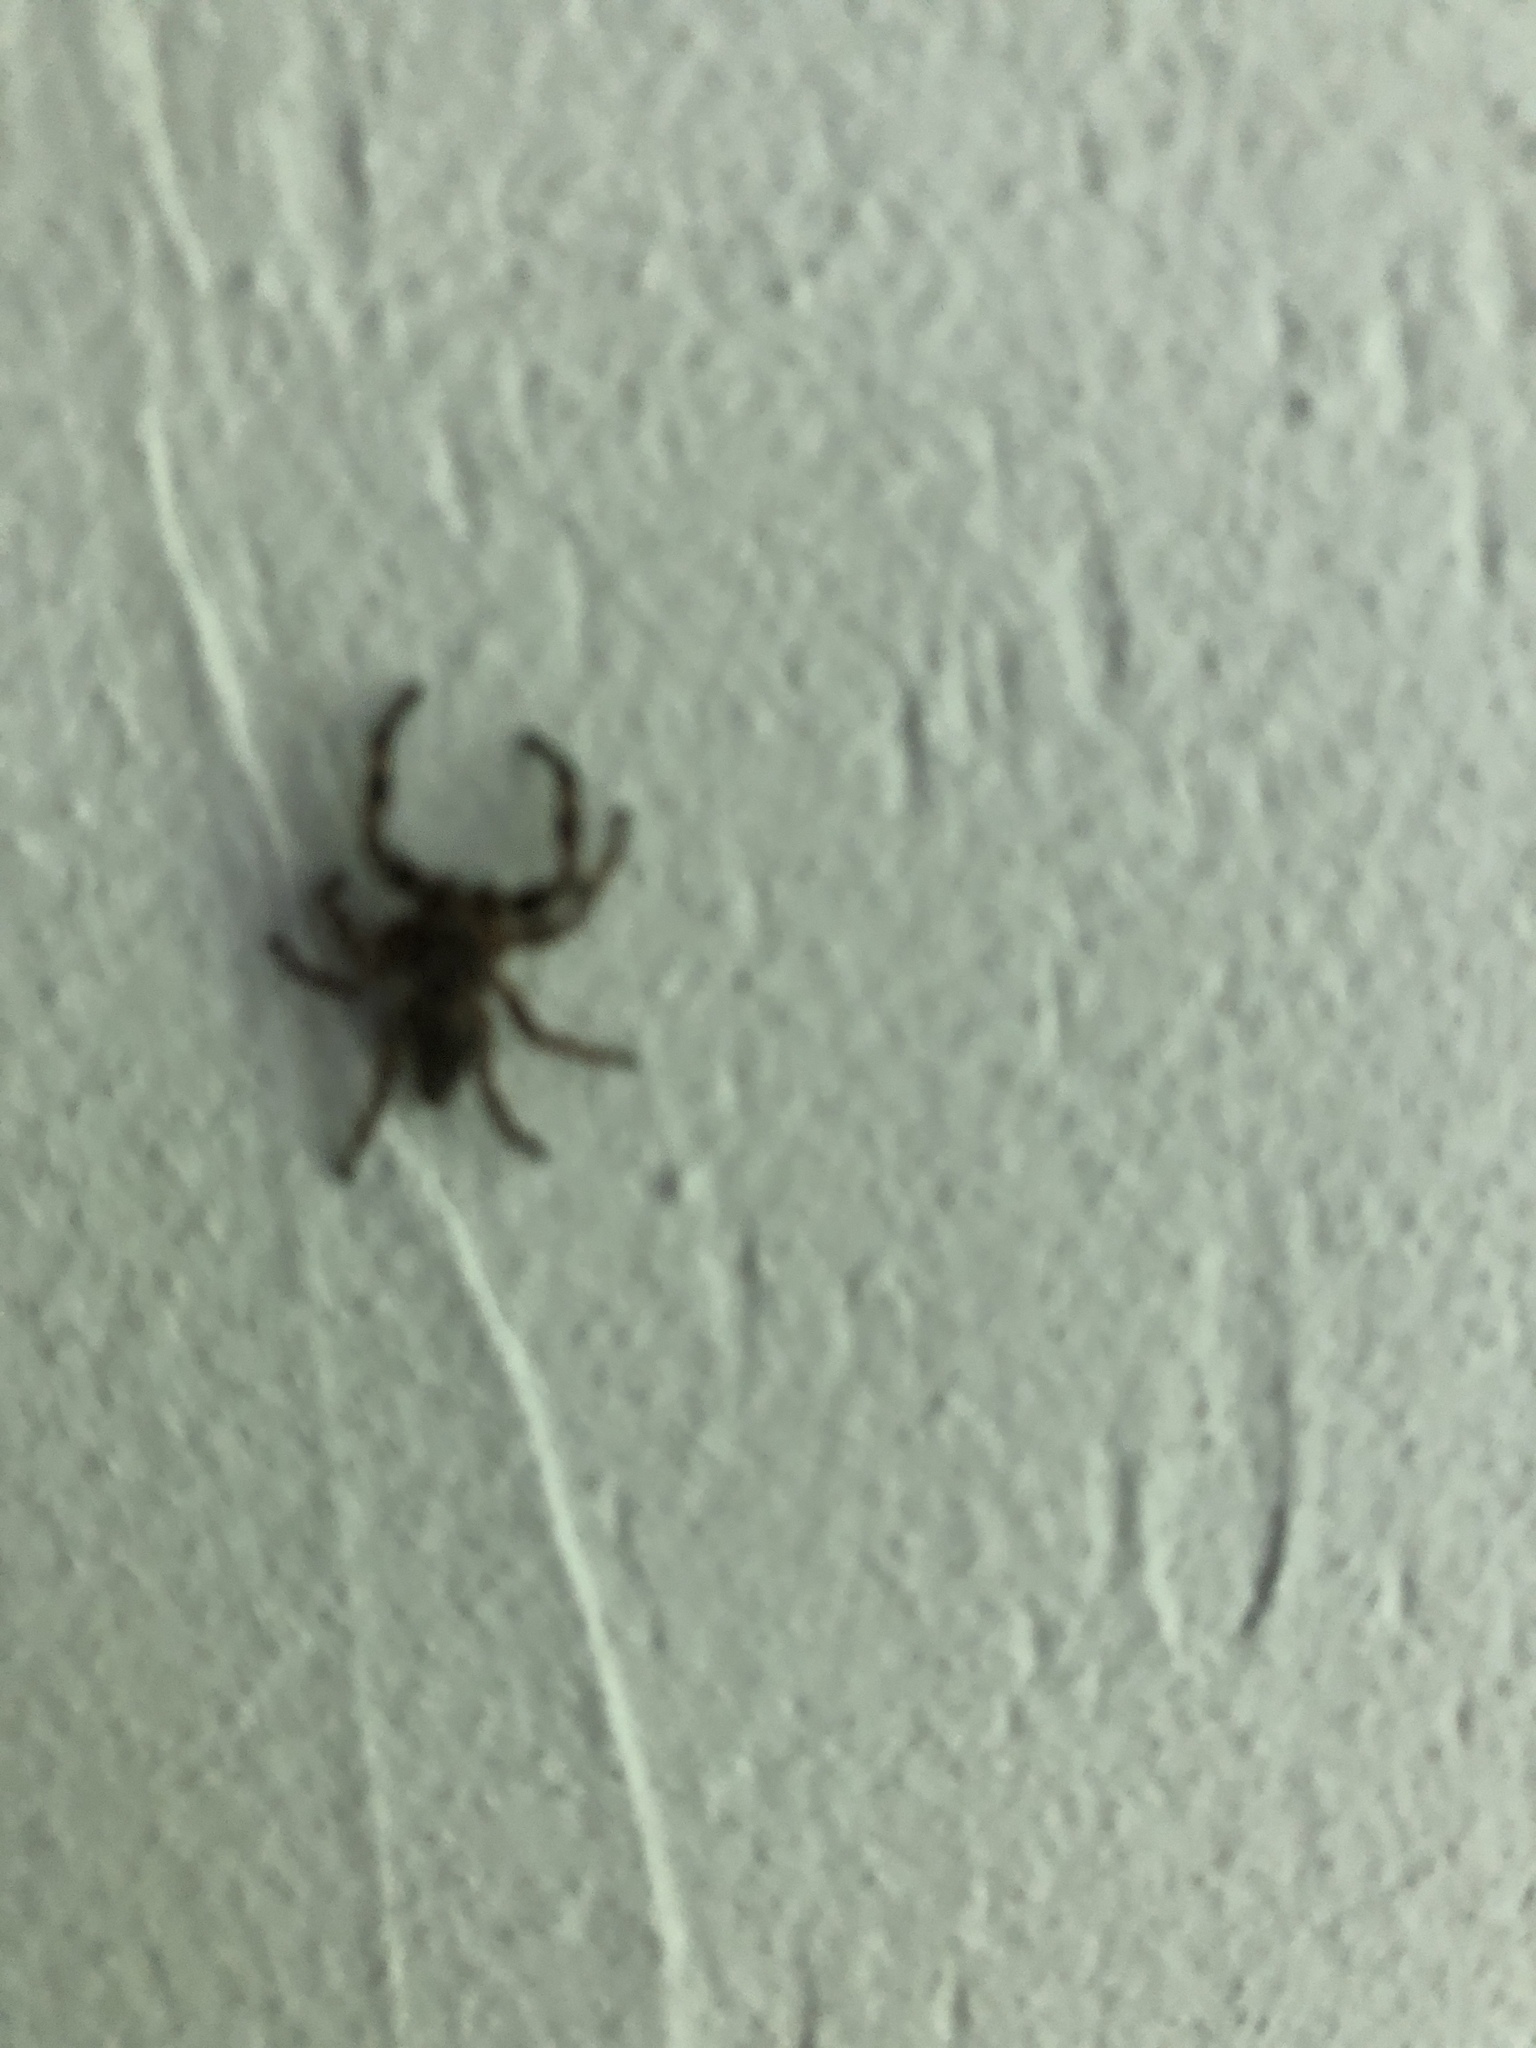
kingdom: Animalia
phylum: Arthropoda
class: Arachnida
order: Araneae
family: Salticidae
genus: Platycryptus
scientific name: Platycryptus undatus
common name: Tan jumping spider
